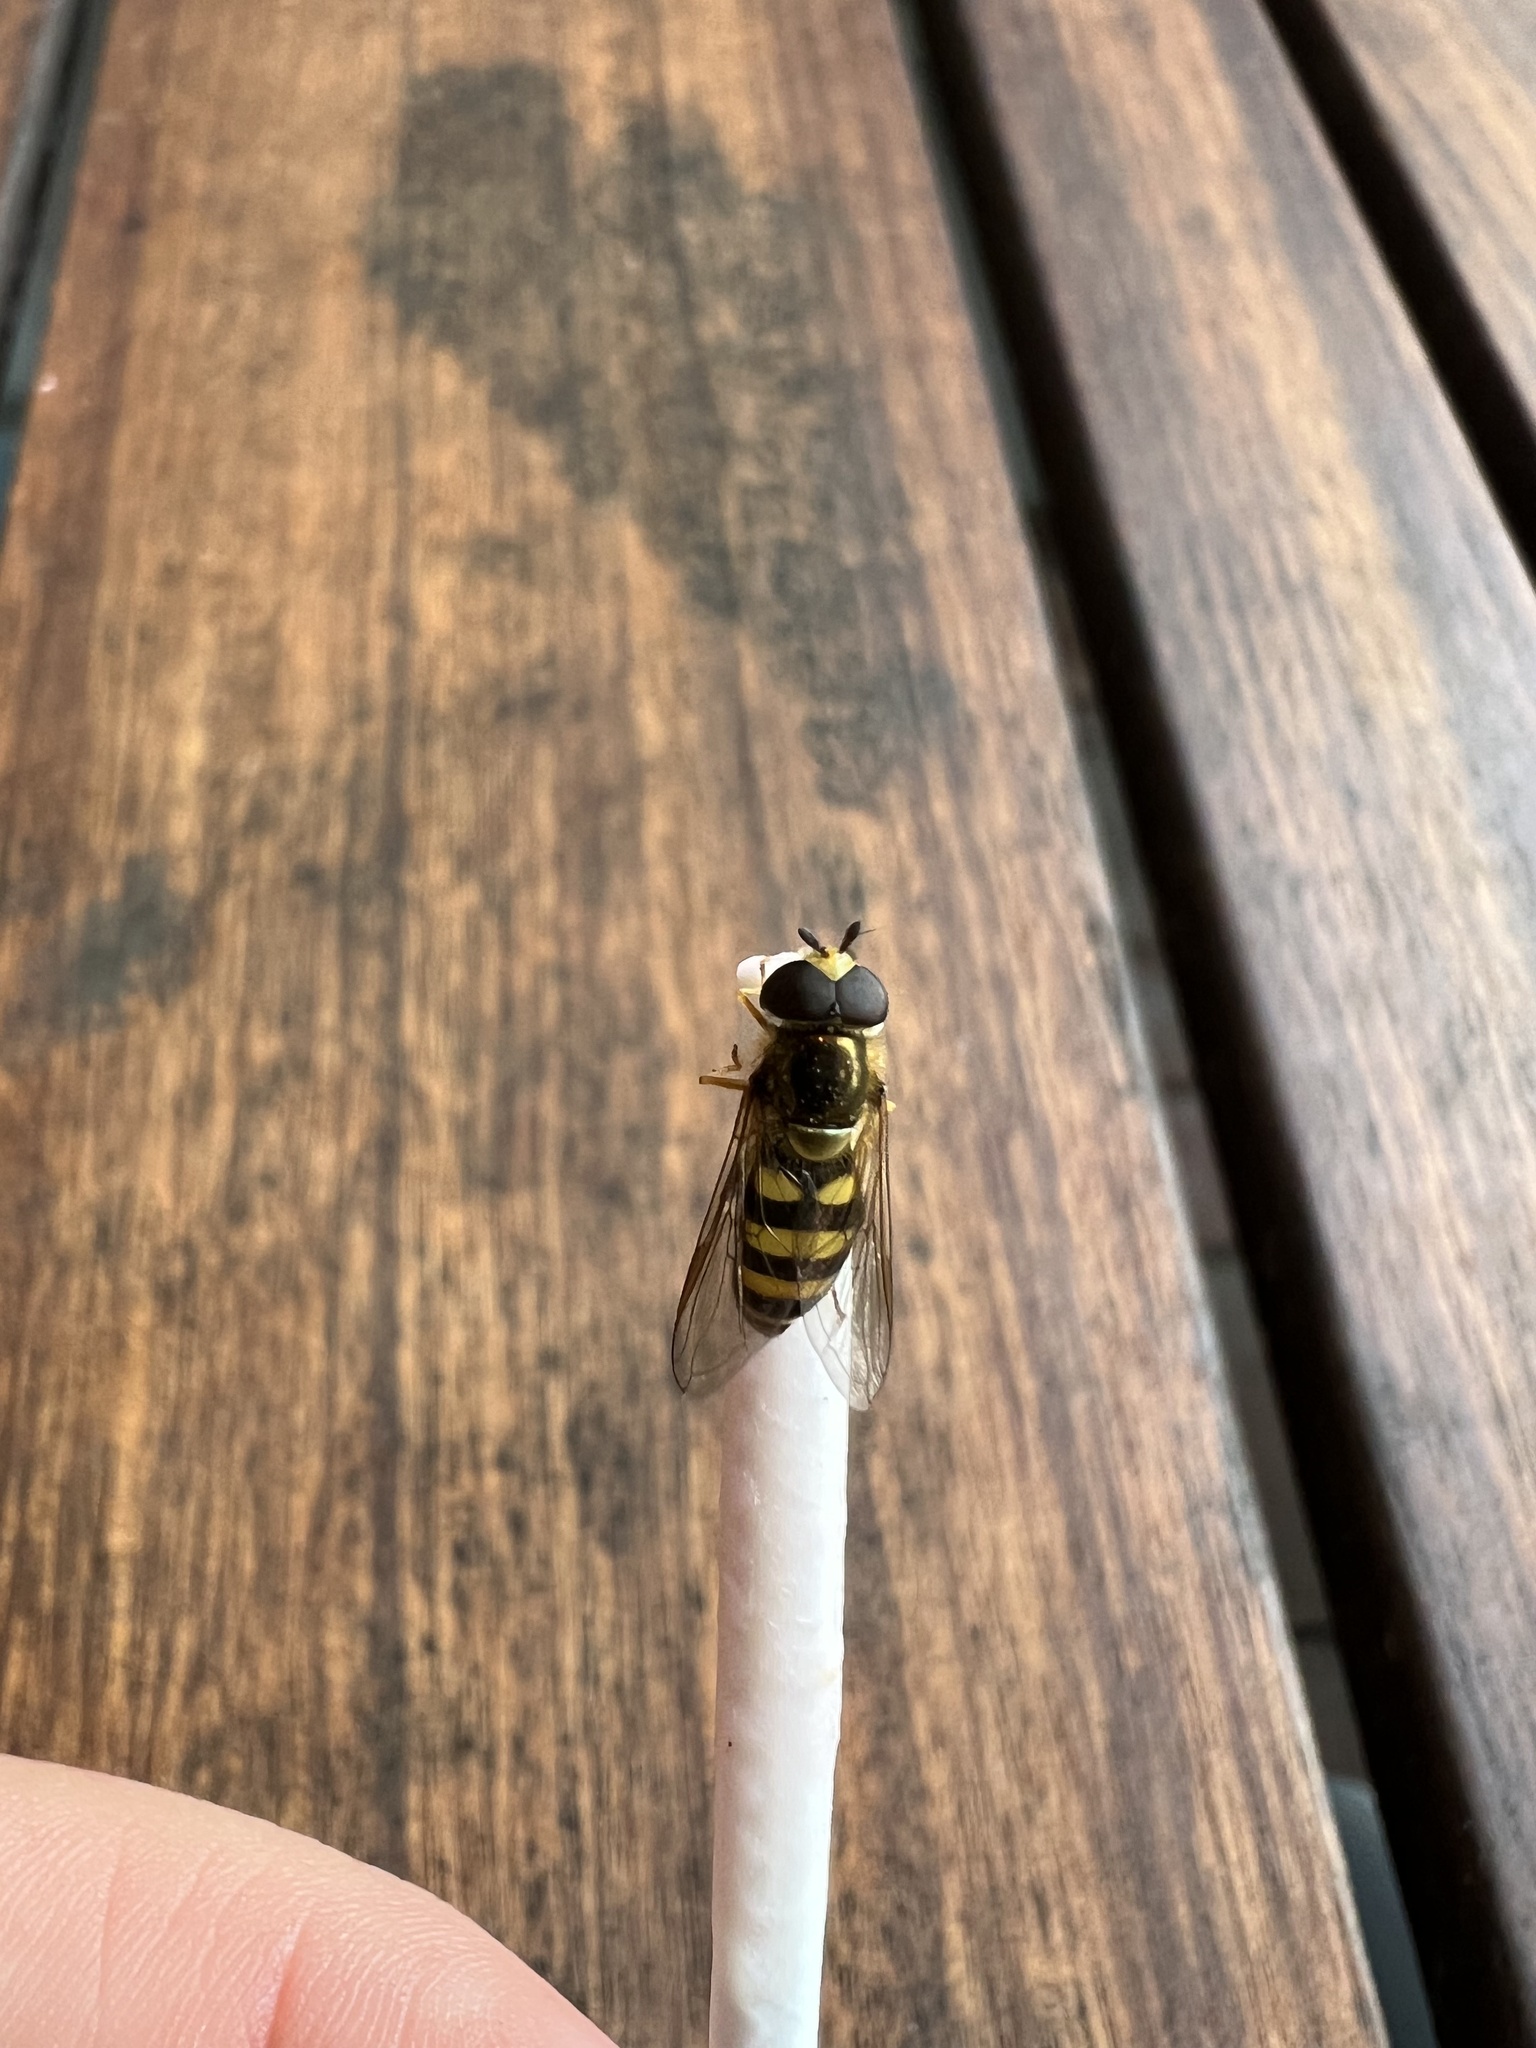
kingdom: Animalia
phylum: Arthropoda
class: Insecta
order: Diptera
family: Syrphidae
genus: Eupeodes
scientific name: Eupeodes
